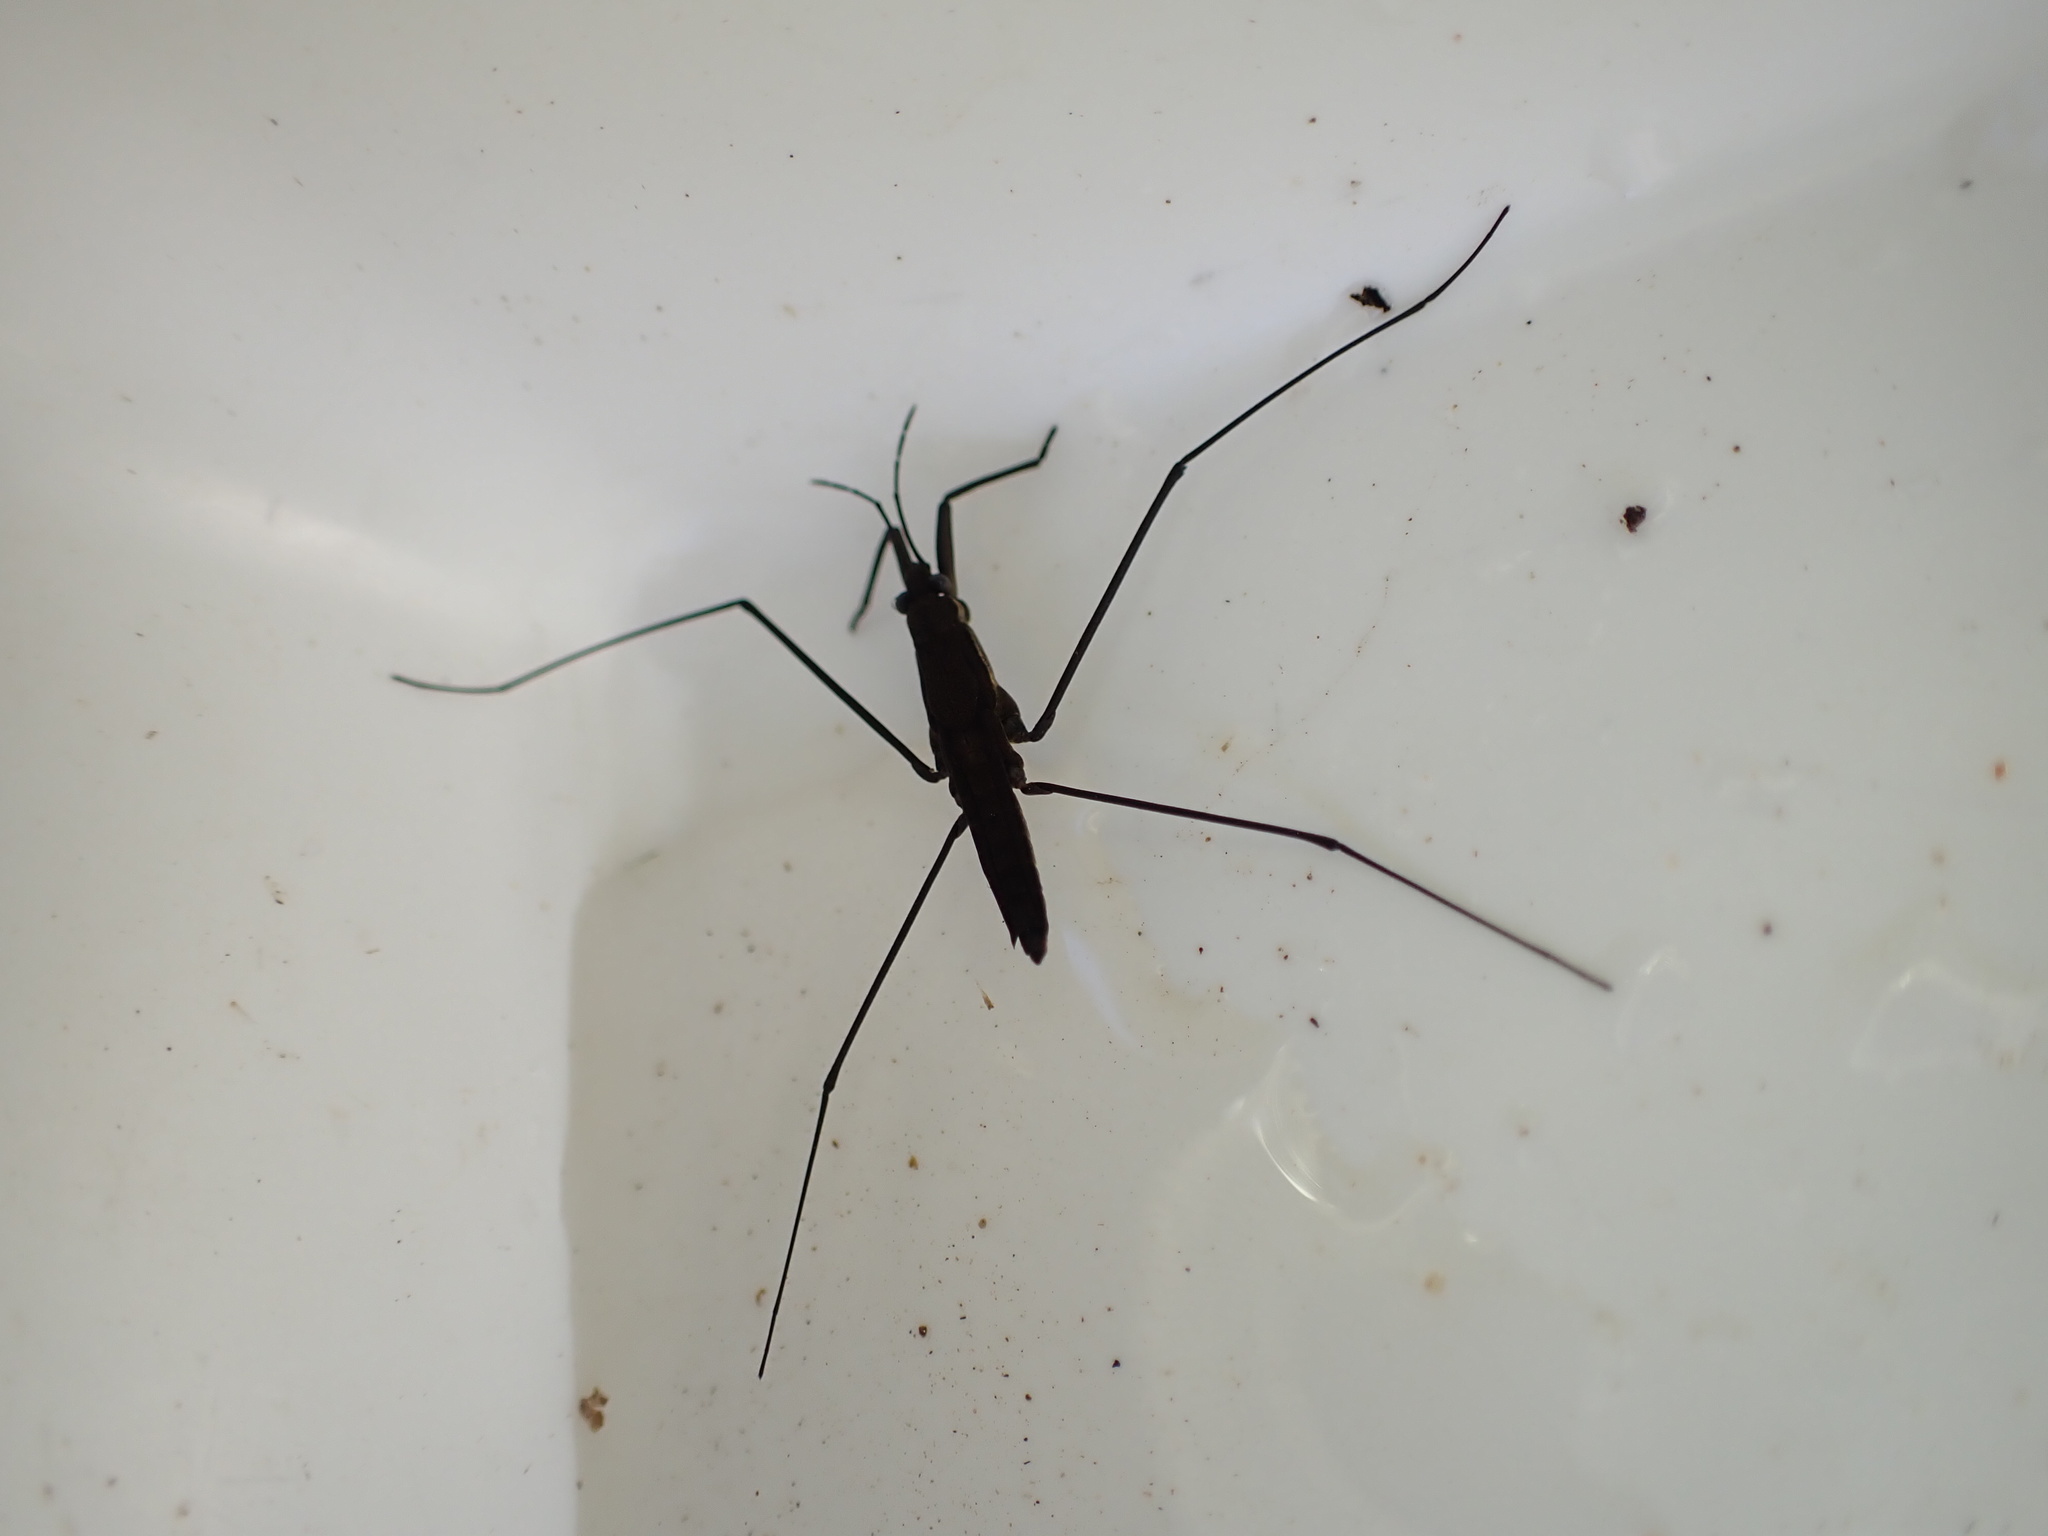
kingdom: Animalia
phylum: Arthropoda
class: Insecta
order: Hemiptera
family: Gerridae
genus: Aquarius
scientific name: Aquarius najas
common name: River skater
